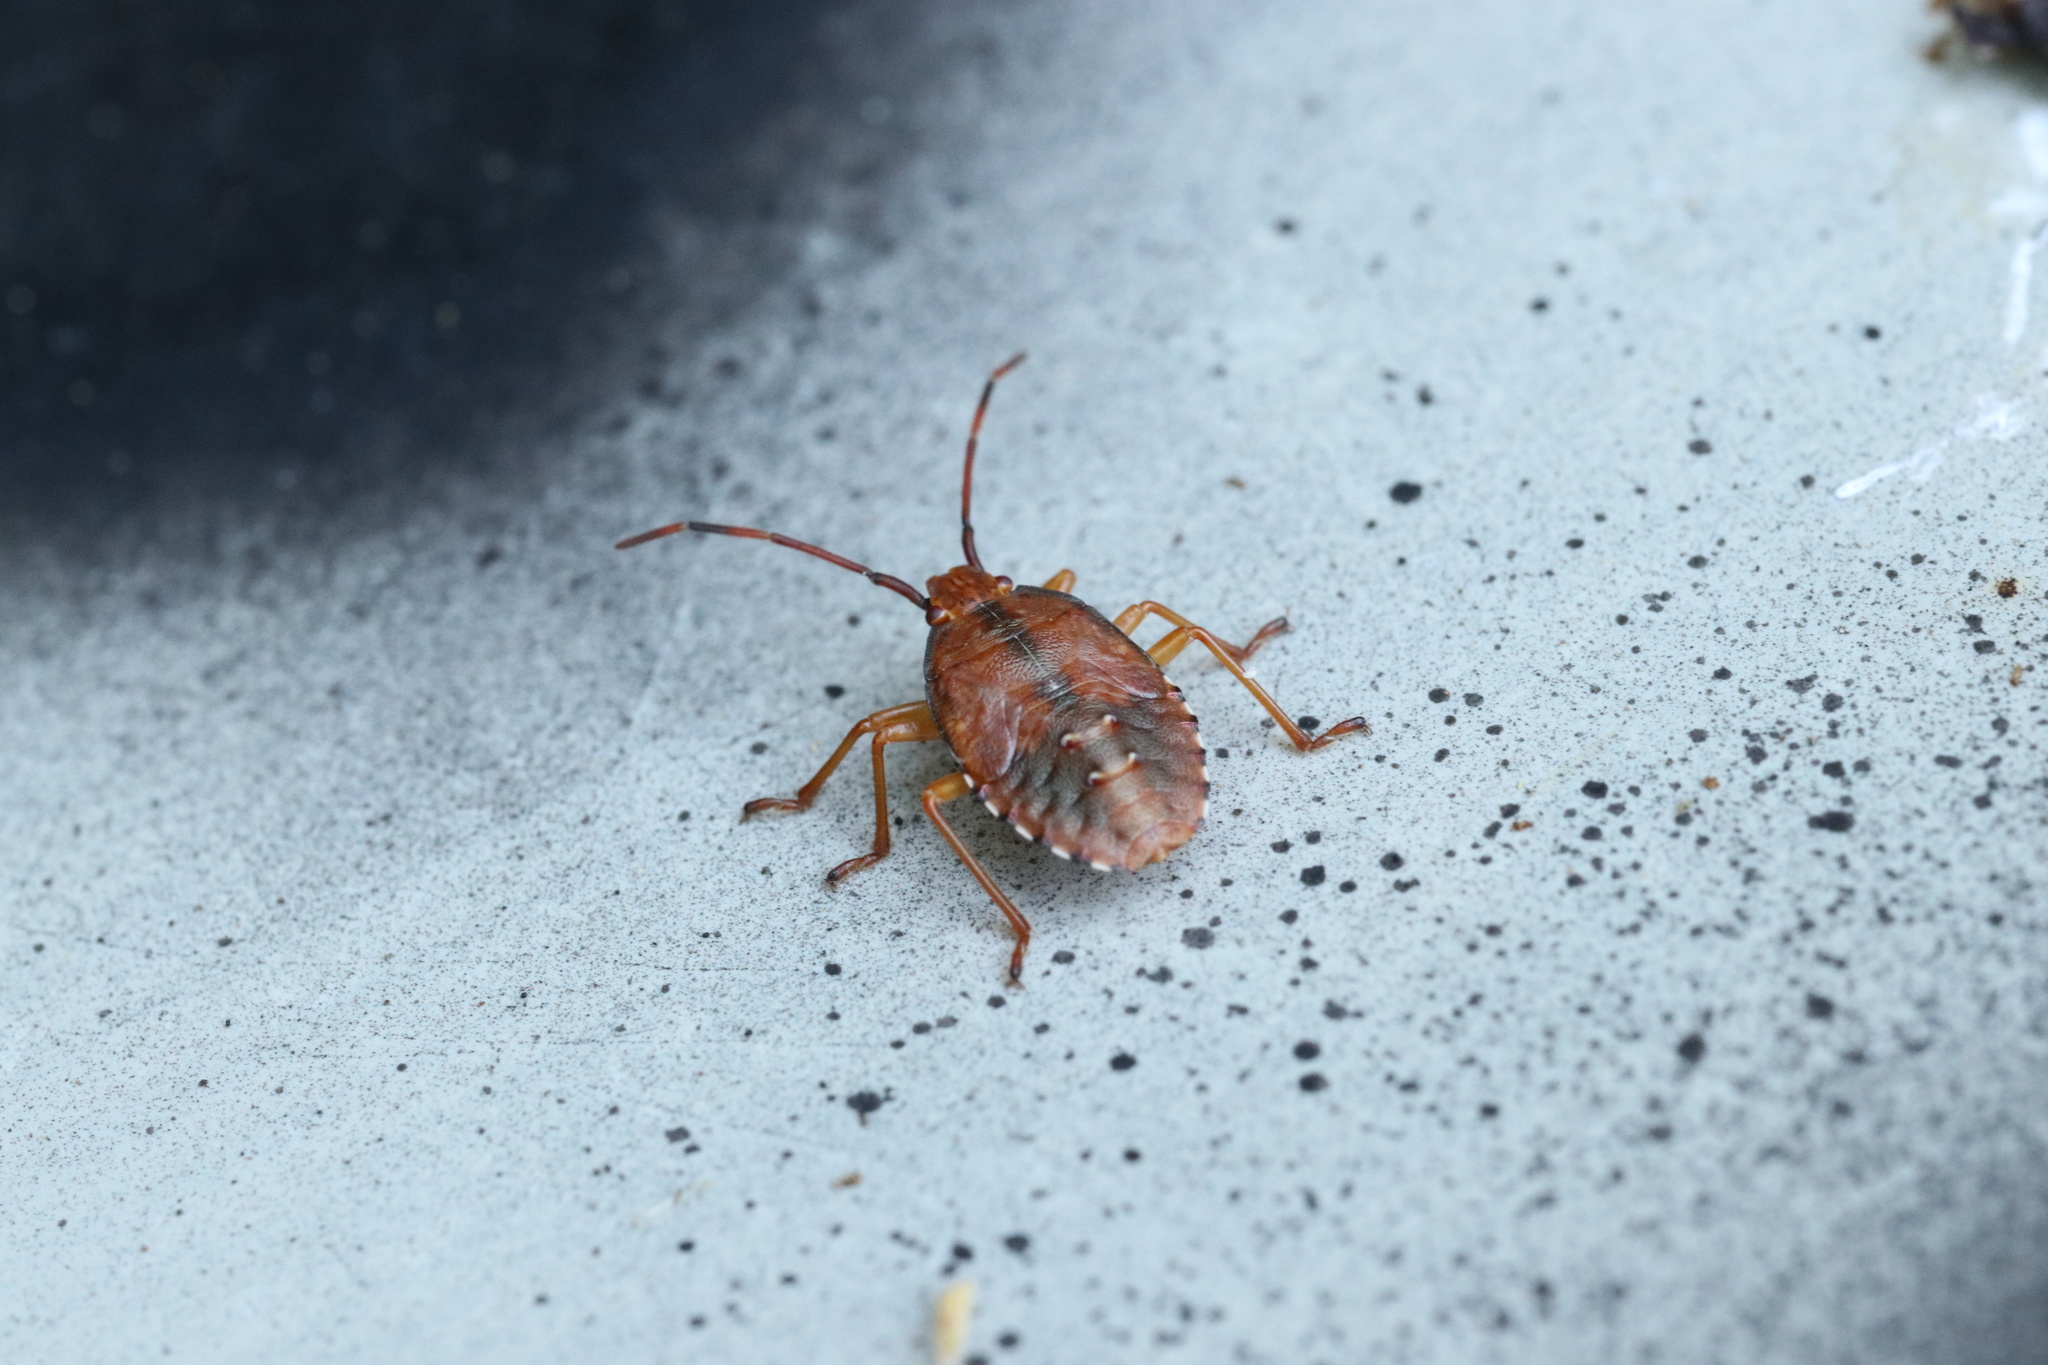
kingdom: Animalia
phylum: Arthropoda
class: Insecta
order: Hemiptera
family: Acanthosomatidae
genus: Planois
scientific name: Planois gayi
